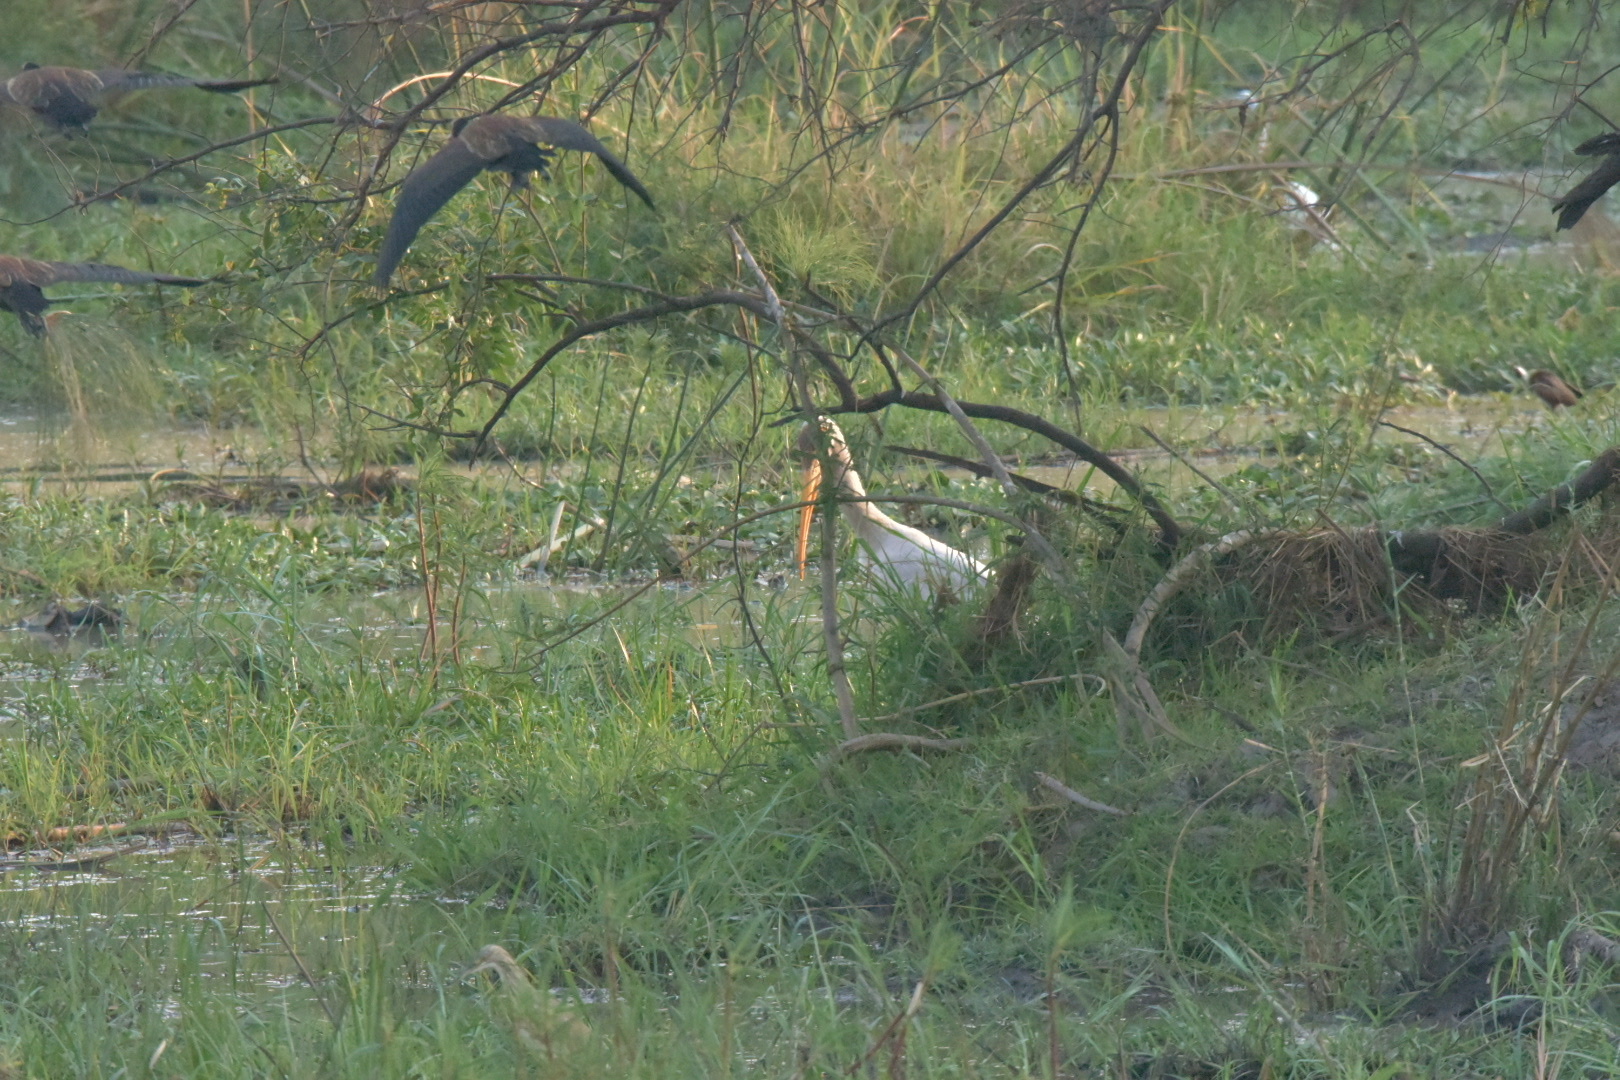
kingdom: Animalia
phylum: Chordata
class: Aves
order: Ciconiiformes
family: Ciconiidae
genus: Mycteria
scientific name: Mycteria ibis
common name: Yellow-billed stork
